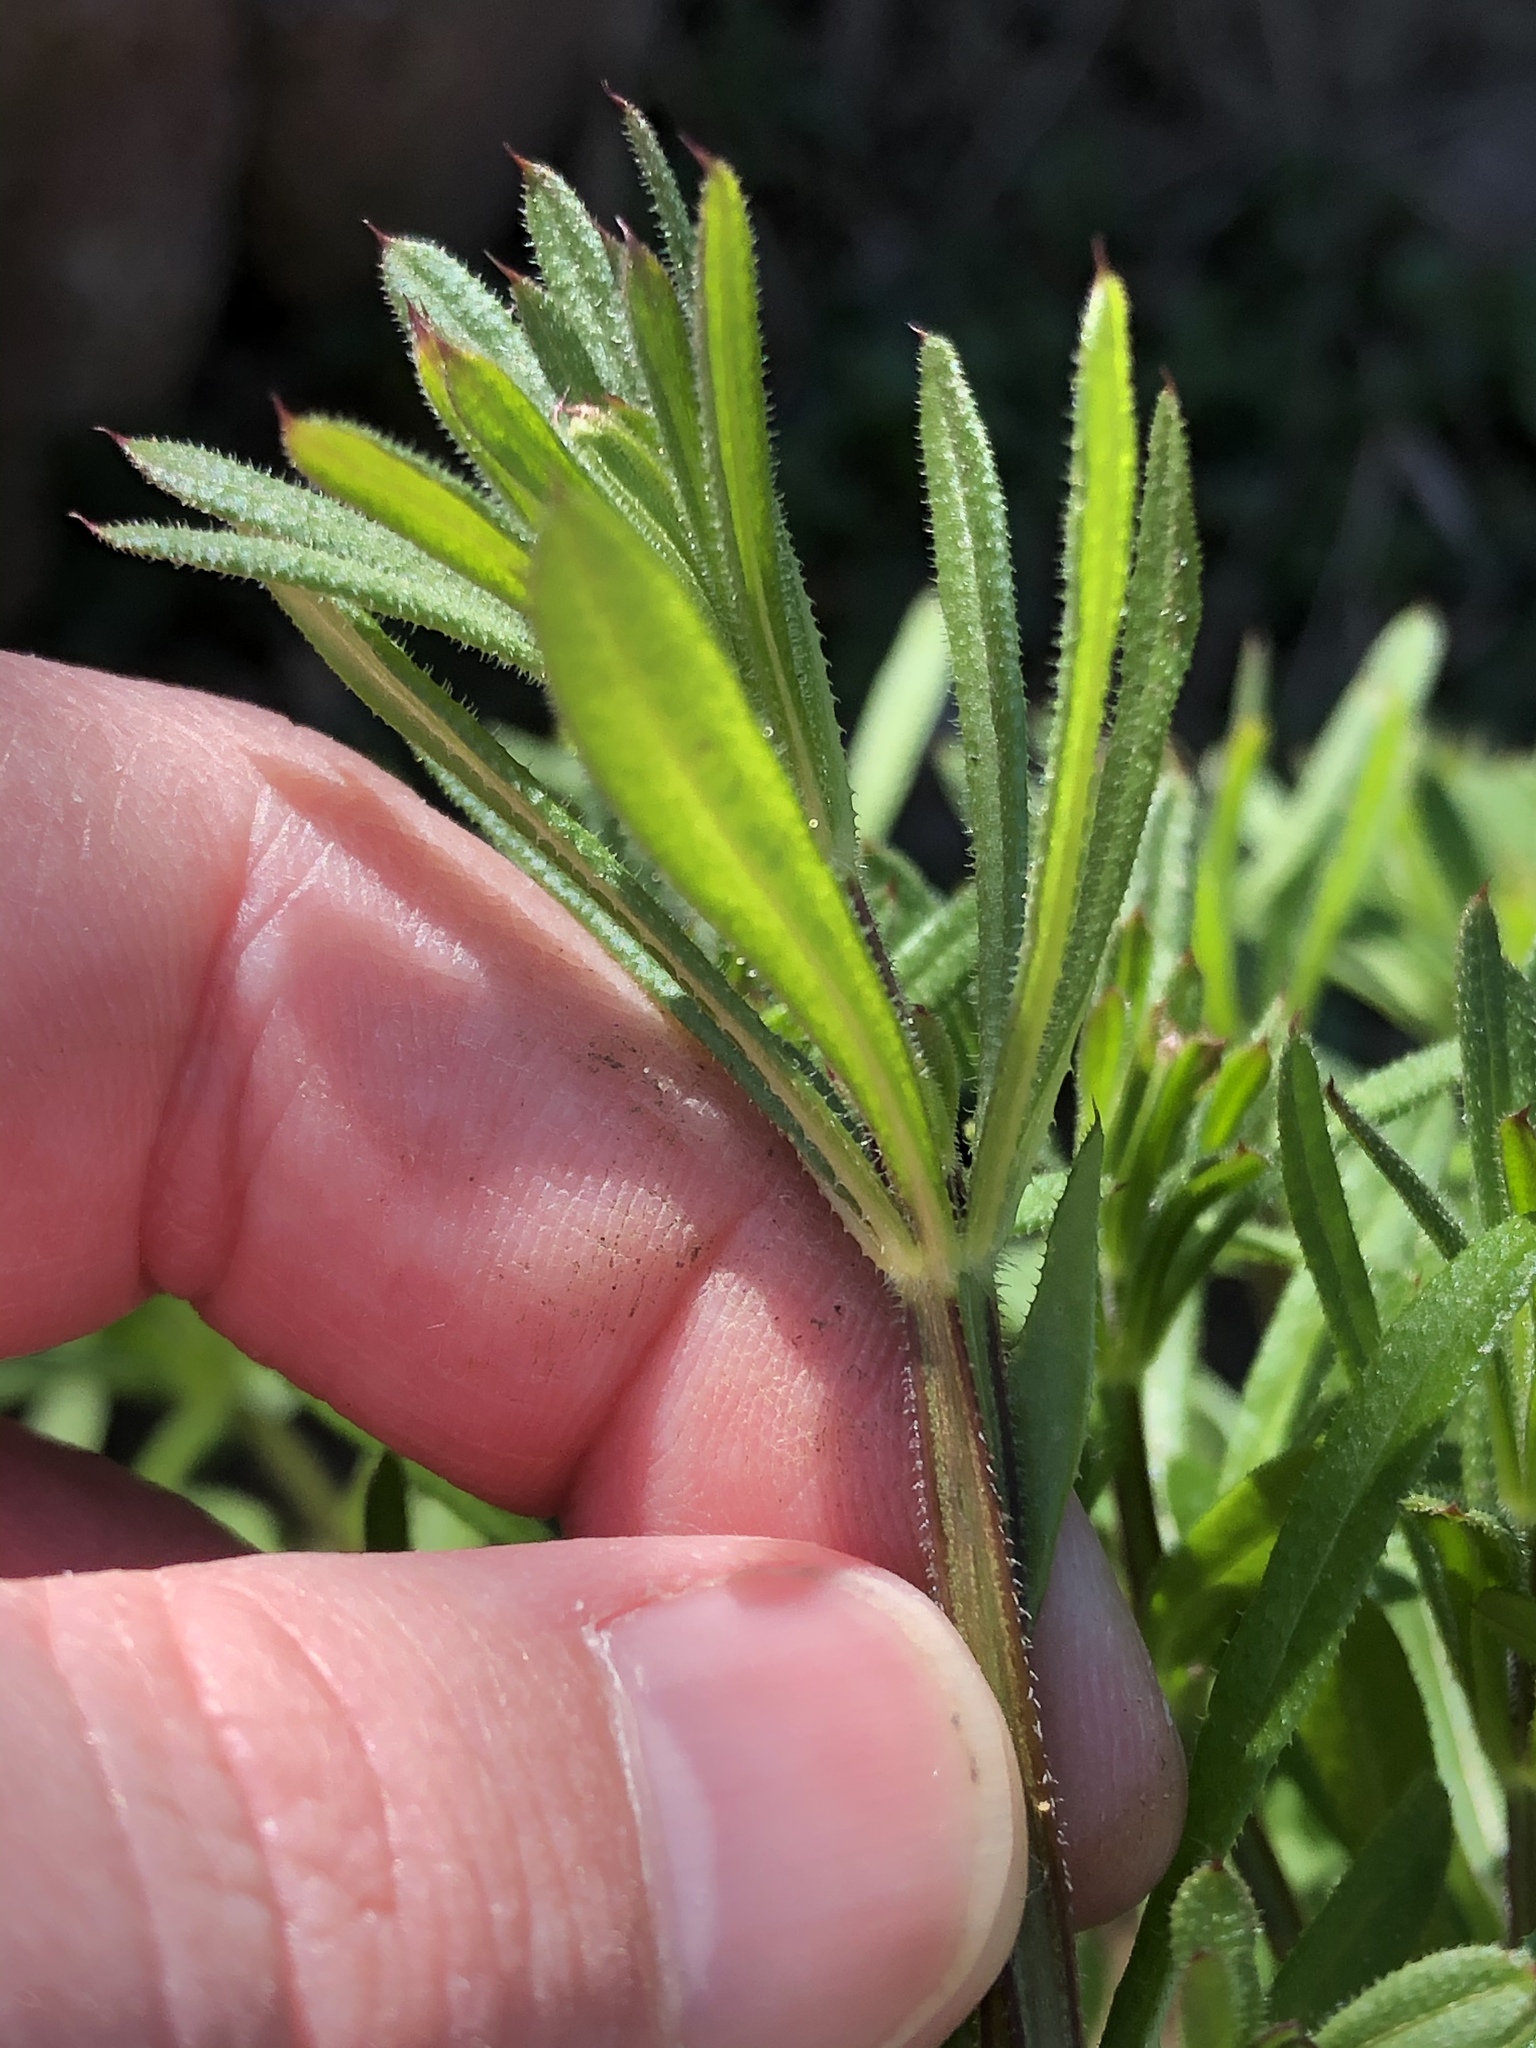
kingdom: Plantae
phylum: Tracheophyta
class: Magnoliopsida
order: Gentianales
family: Rubiaceae
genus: Galium
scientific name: Galium aparine
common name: Cleavers
